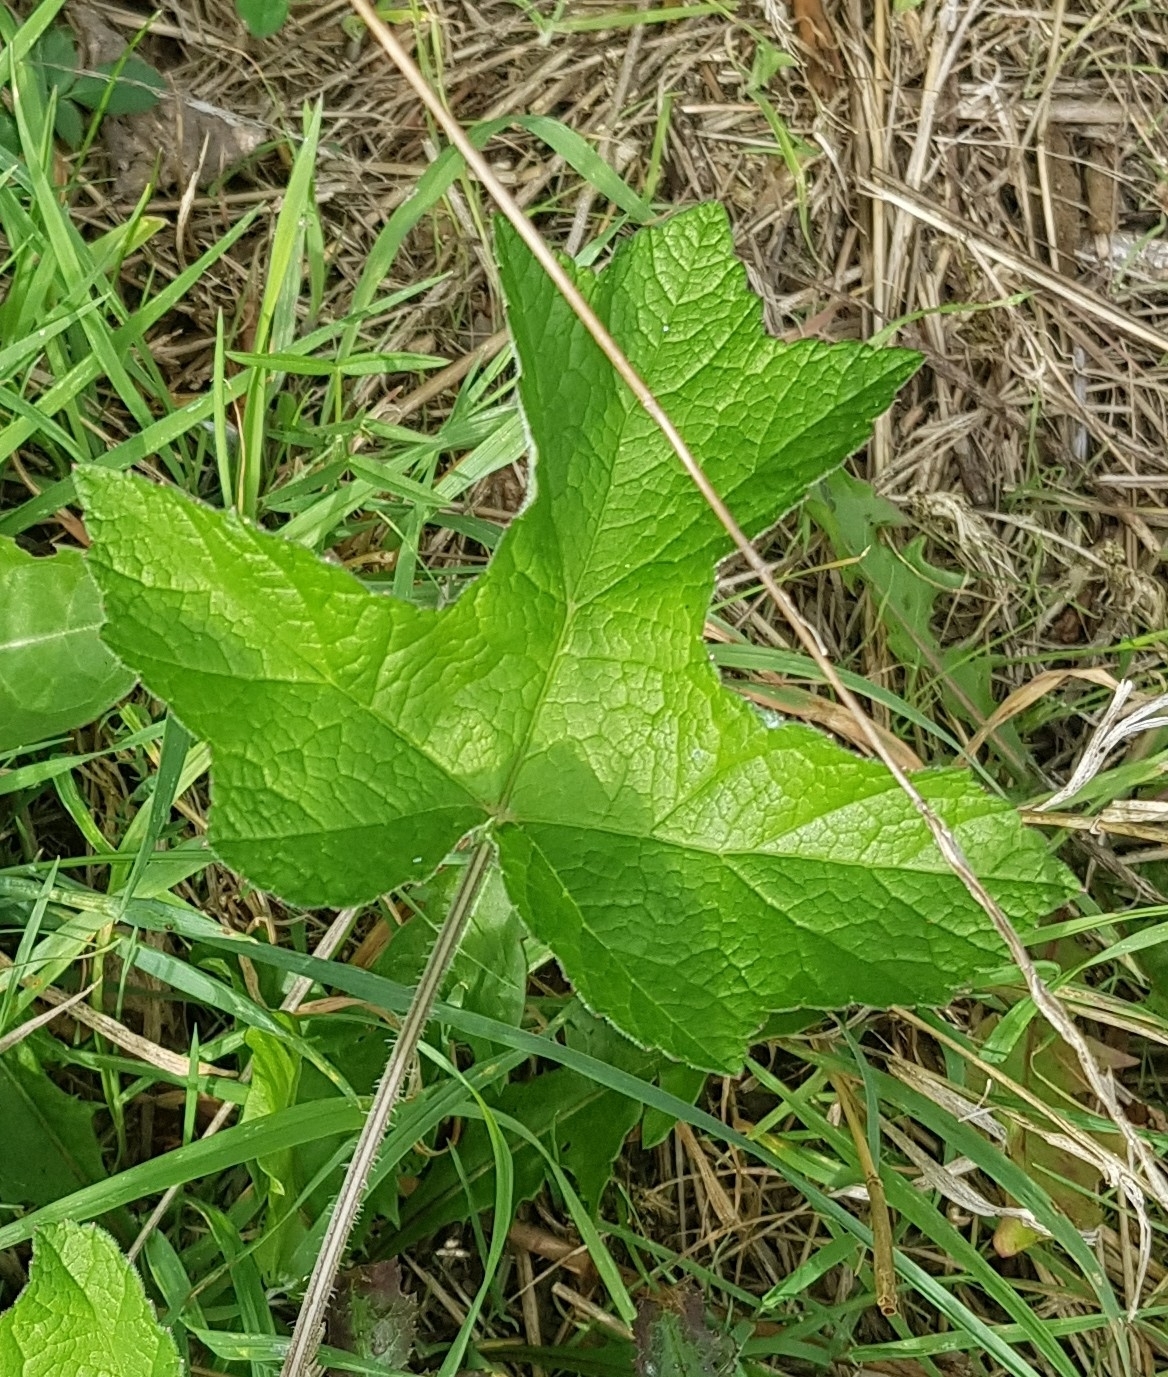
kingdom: Plantae
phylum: Tracheophyta
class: Magnoliopsida
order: Apiales
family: Apiaceae
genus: Heracleum
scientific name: Heracleum sphondylium
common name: Hogweed
